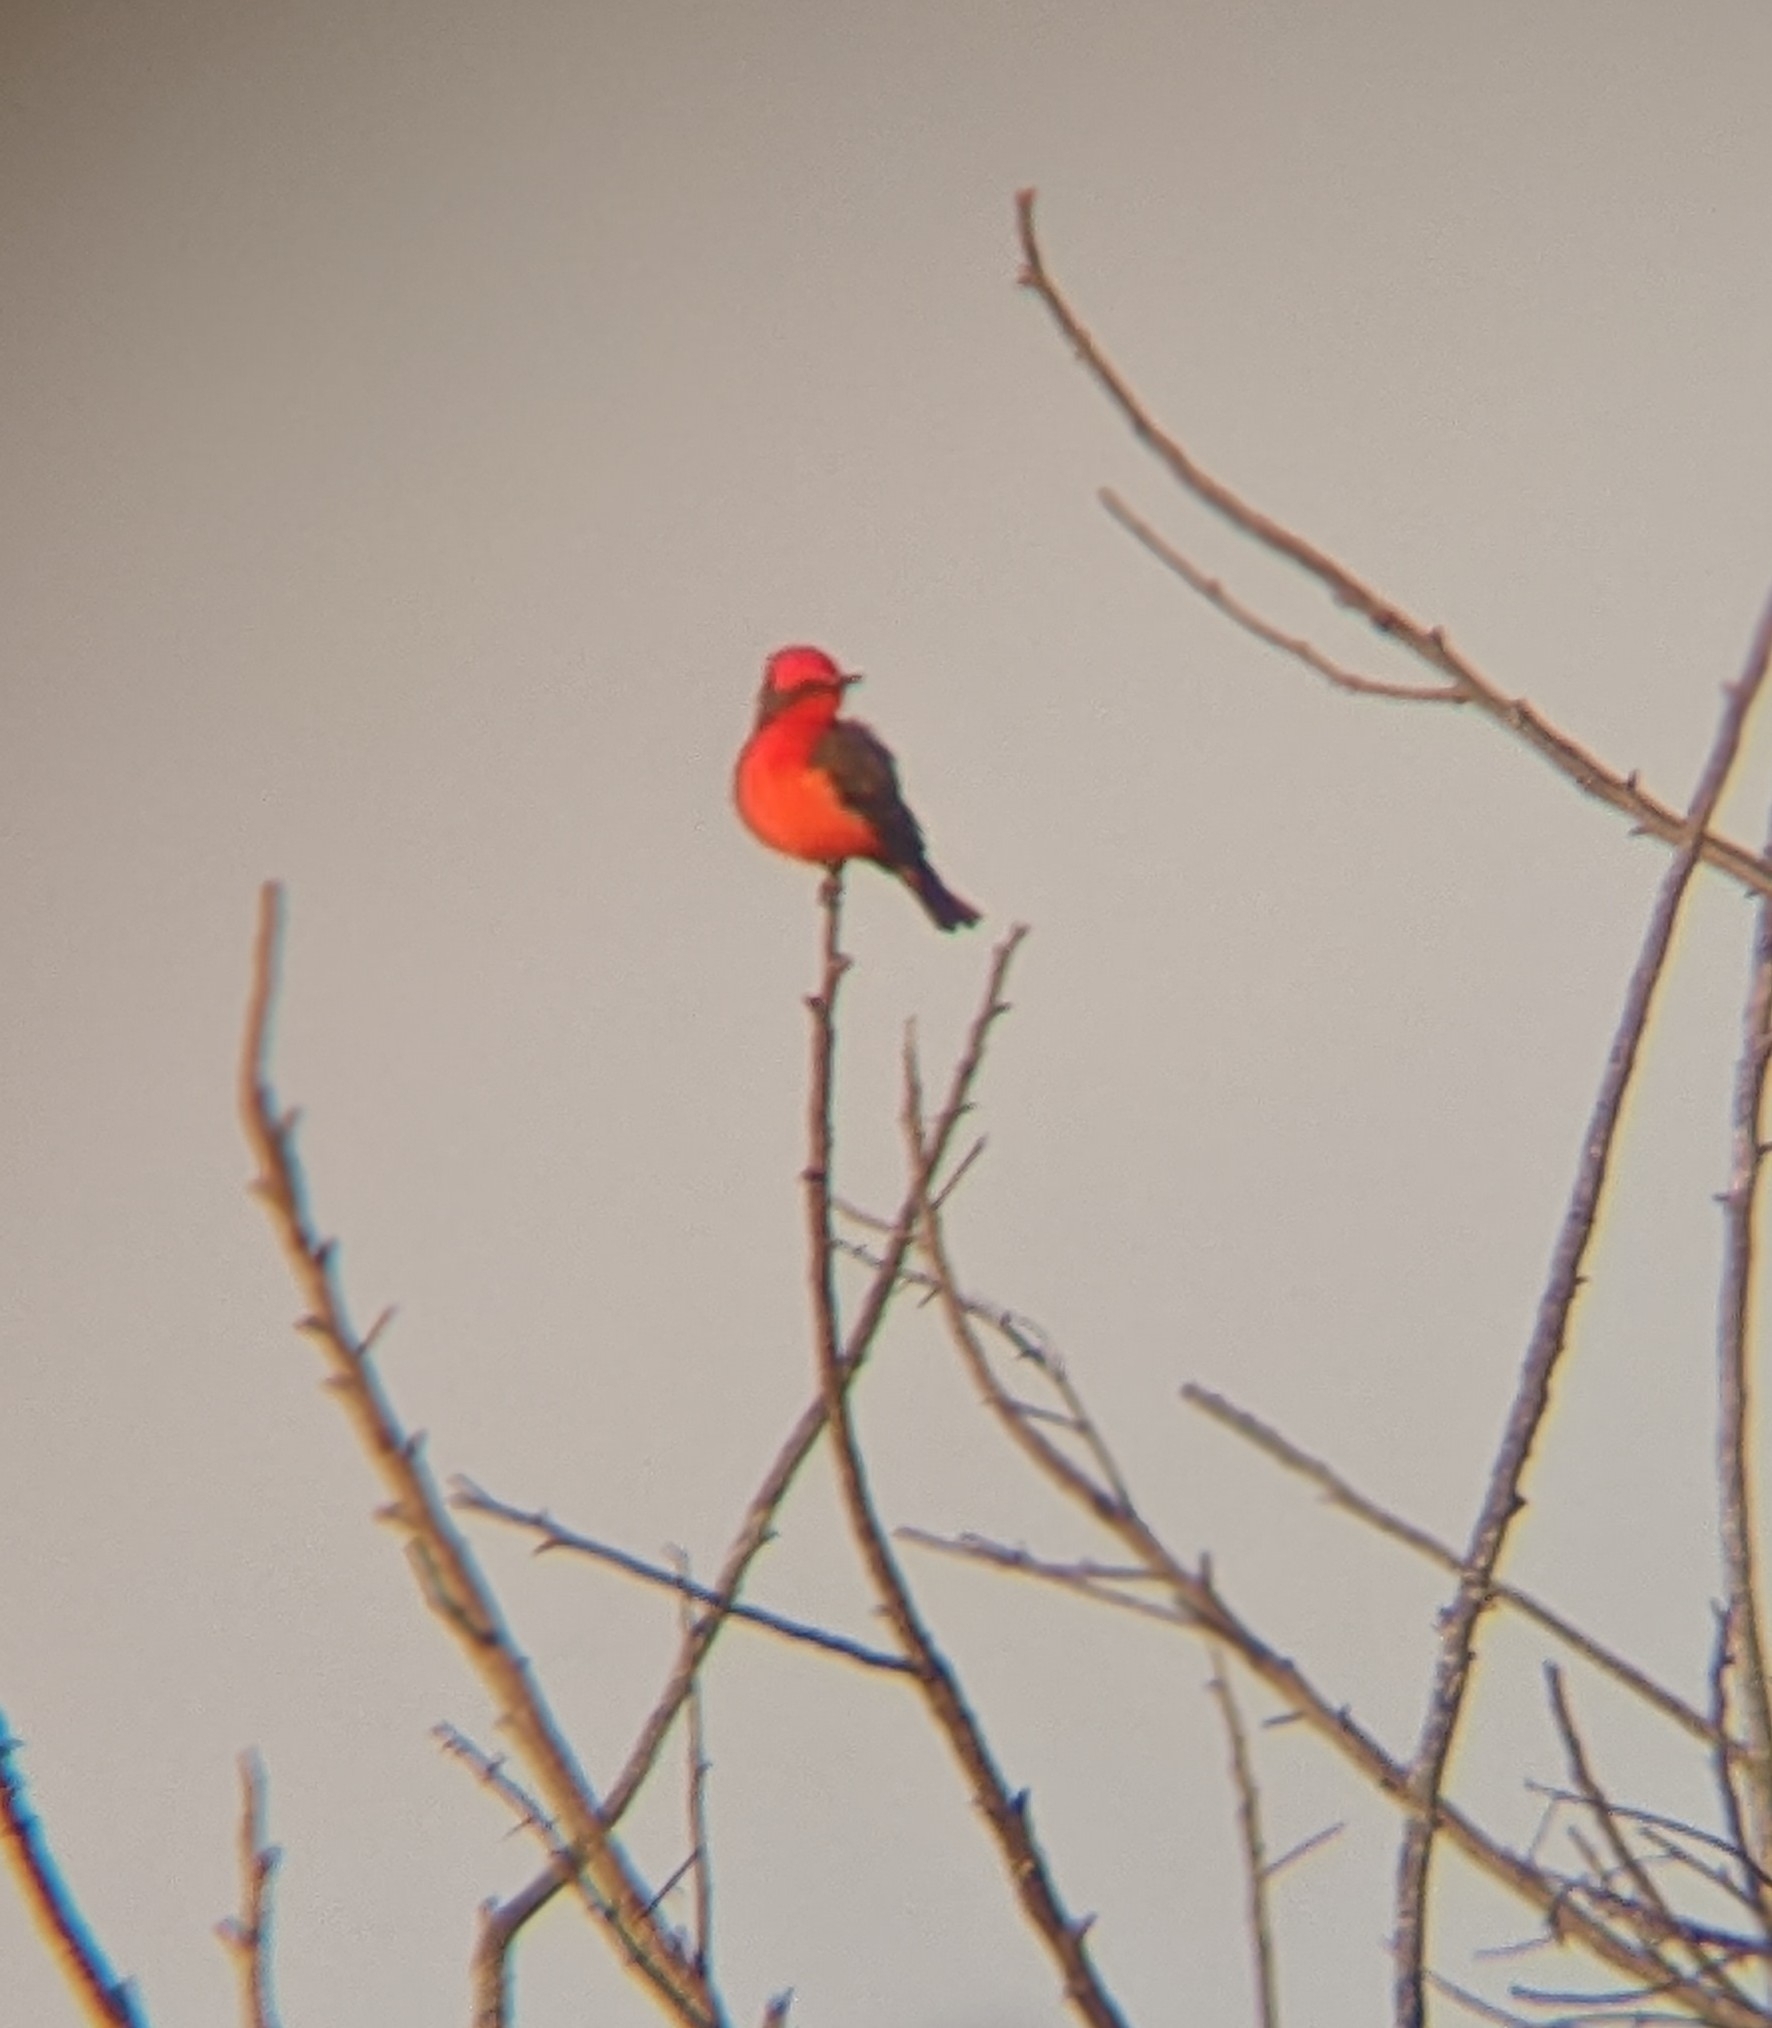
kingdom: Animalia
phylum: Chordata
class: Aves
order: Passeriformes
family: Tyrannidae
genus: Pyrocephalus
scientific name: Pyrocephalus rubinus
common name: Vermilion flycatcher
